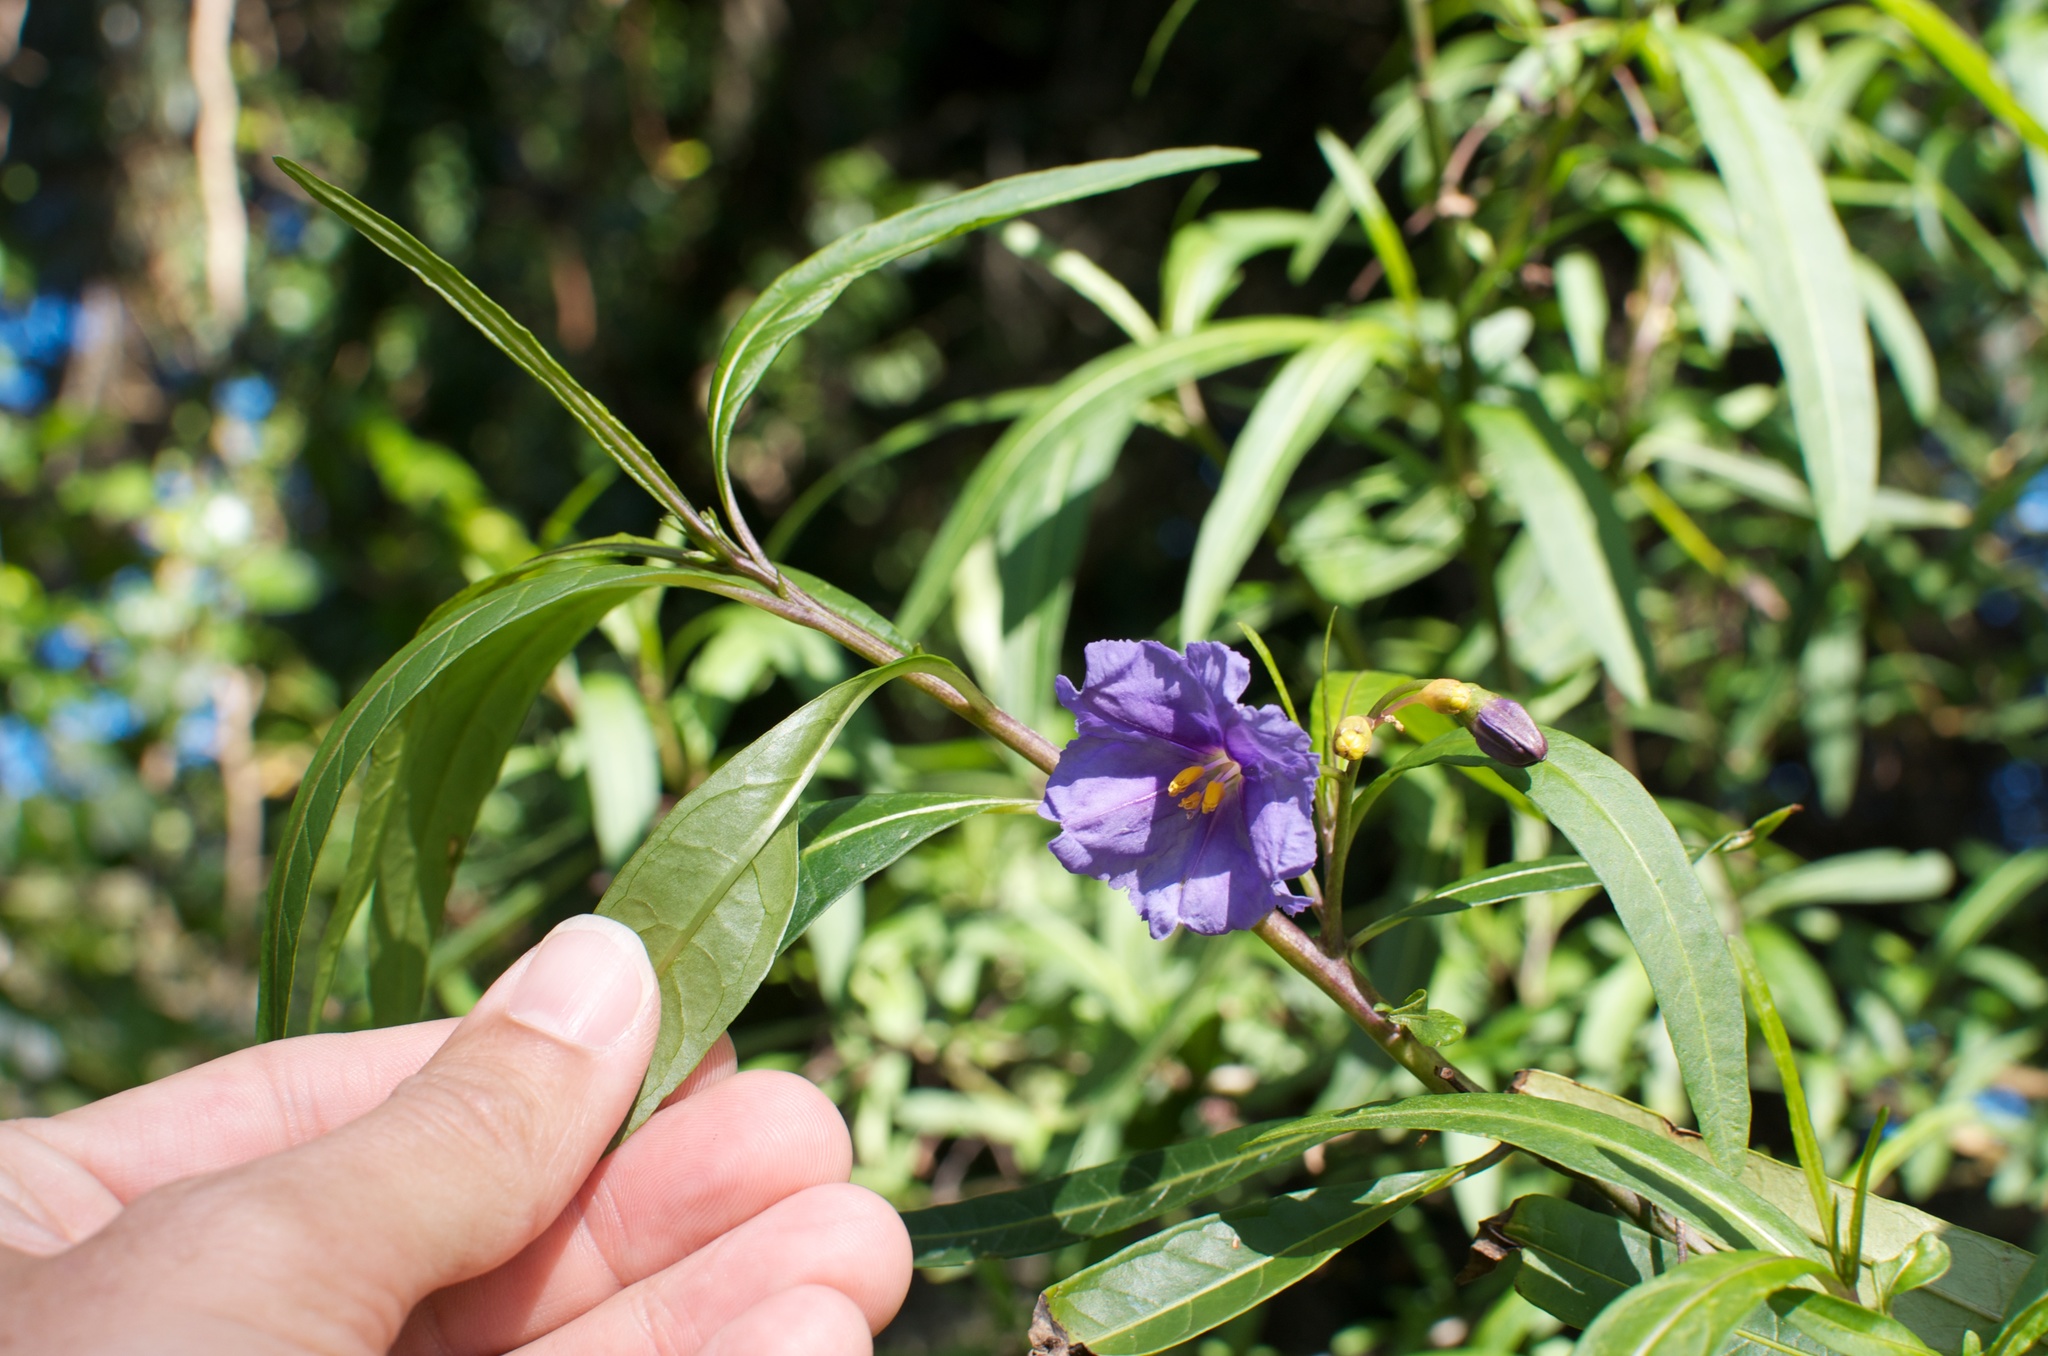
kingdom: Plantae
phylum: Tracheophyta
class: Magnoliopsida
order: Solanales
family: Solanaceae
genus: Solanum
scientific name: Solanum laciniatum
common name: Kangaroo-apple
